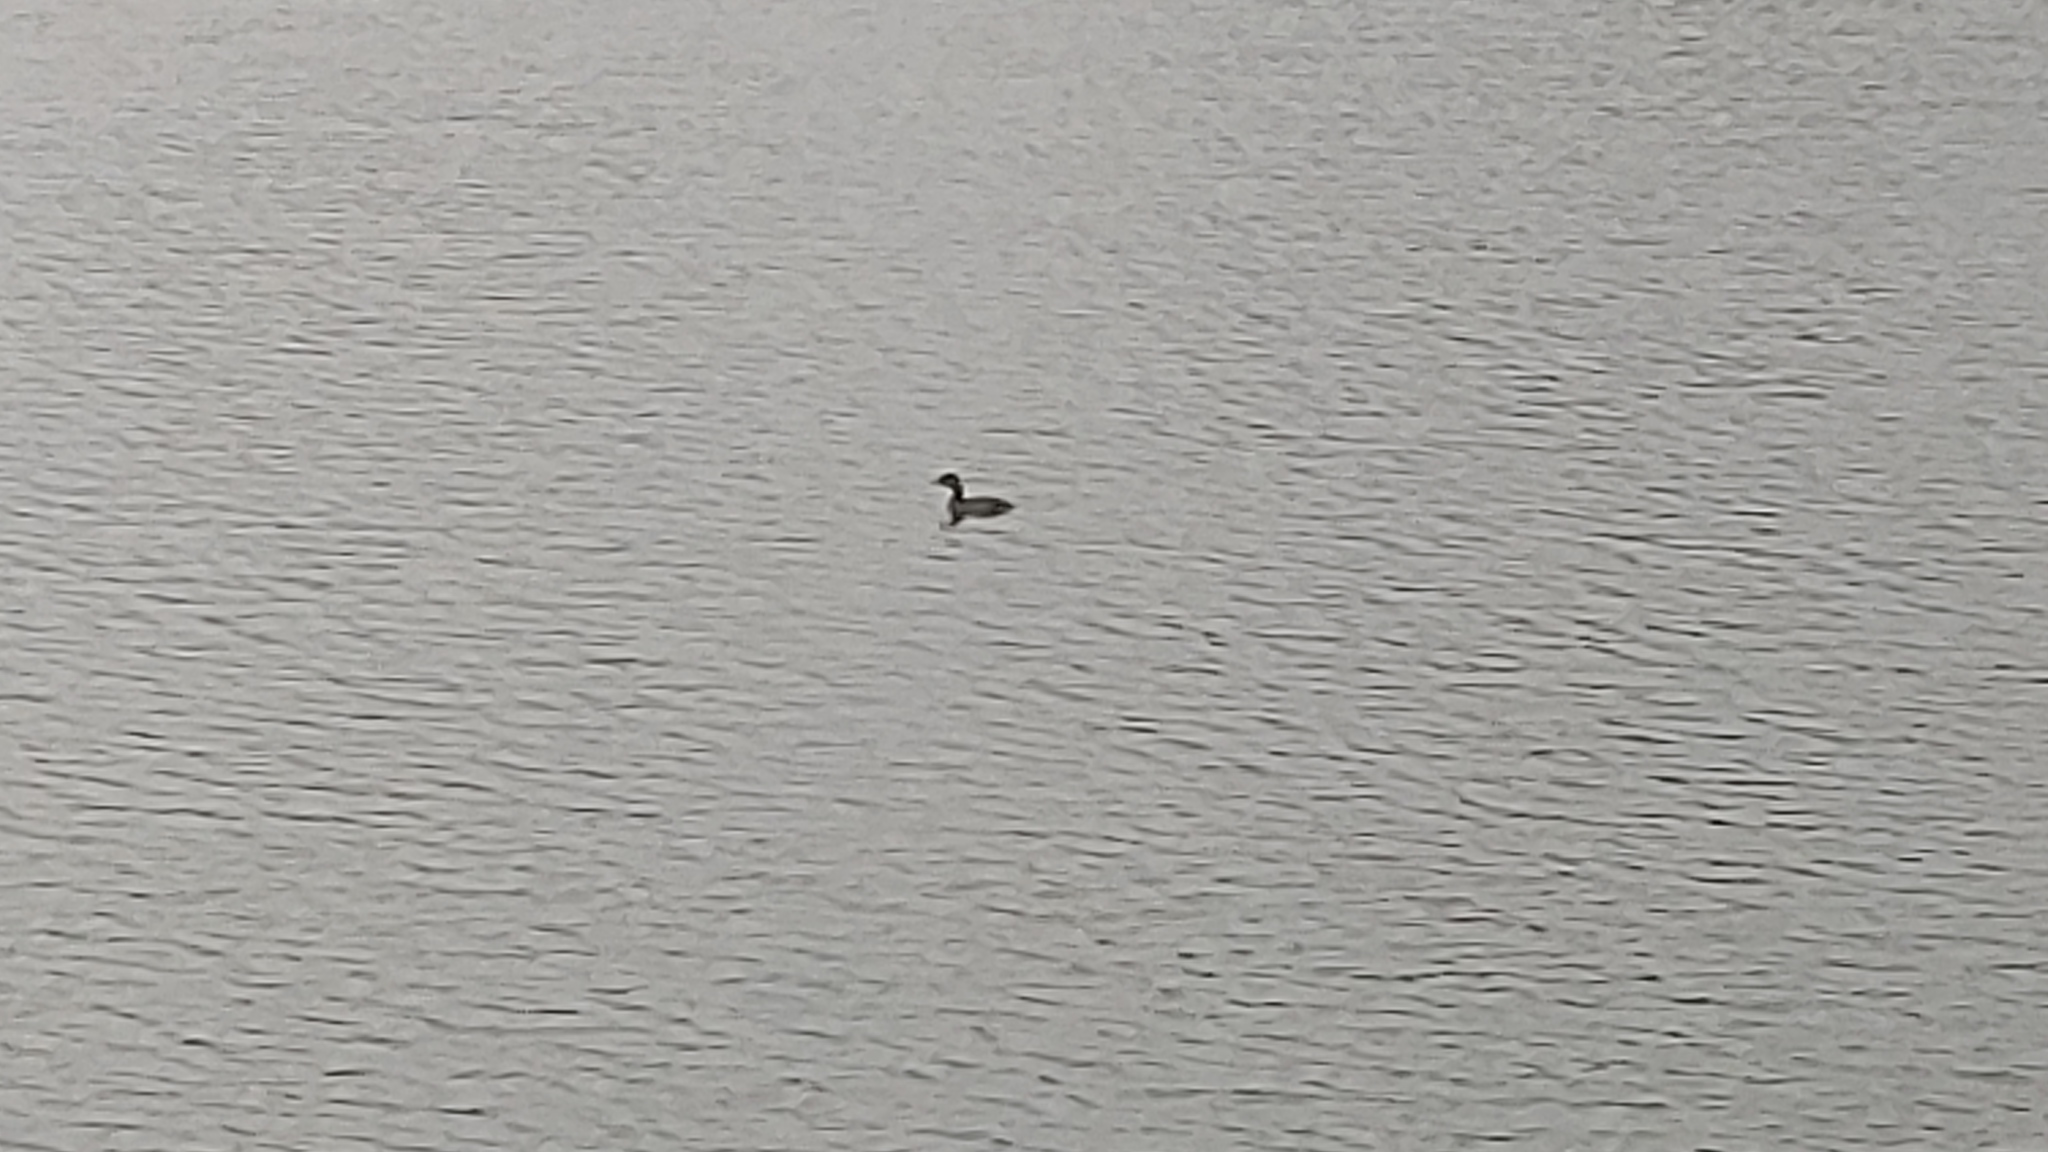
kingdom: Animalia
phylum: Chordata
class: Aves
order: Podicipediformes
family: Podicipedidae
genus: Podilymbus
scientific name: Podilymbus podiceps
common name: Pied-billed grebe
